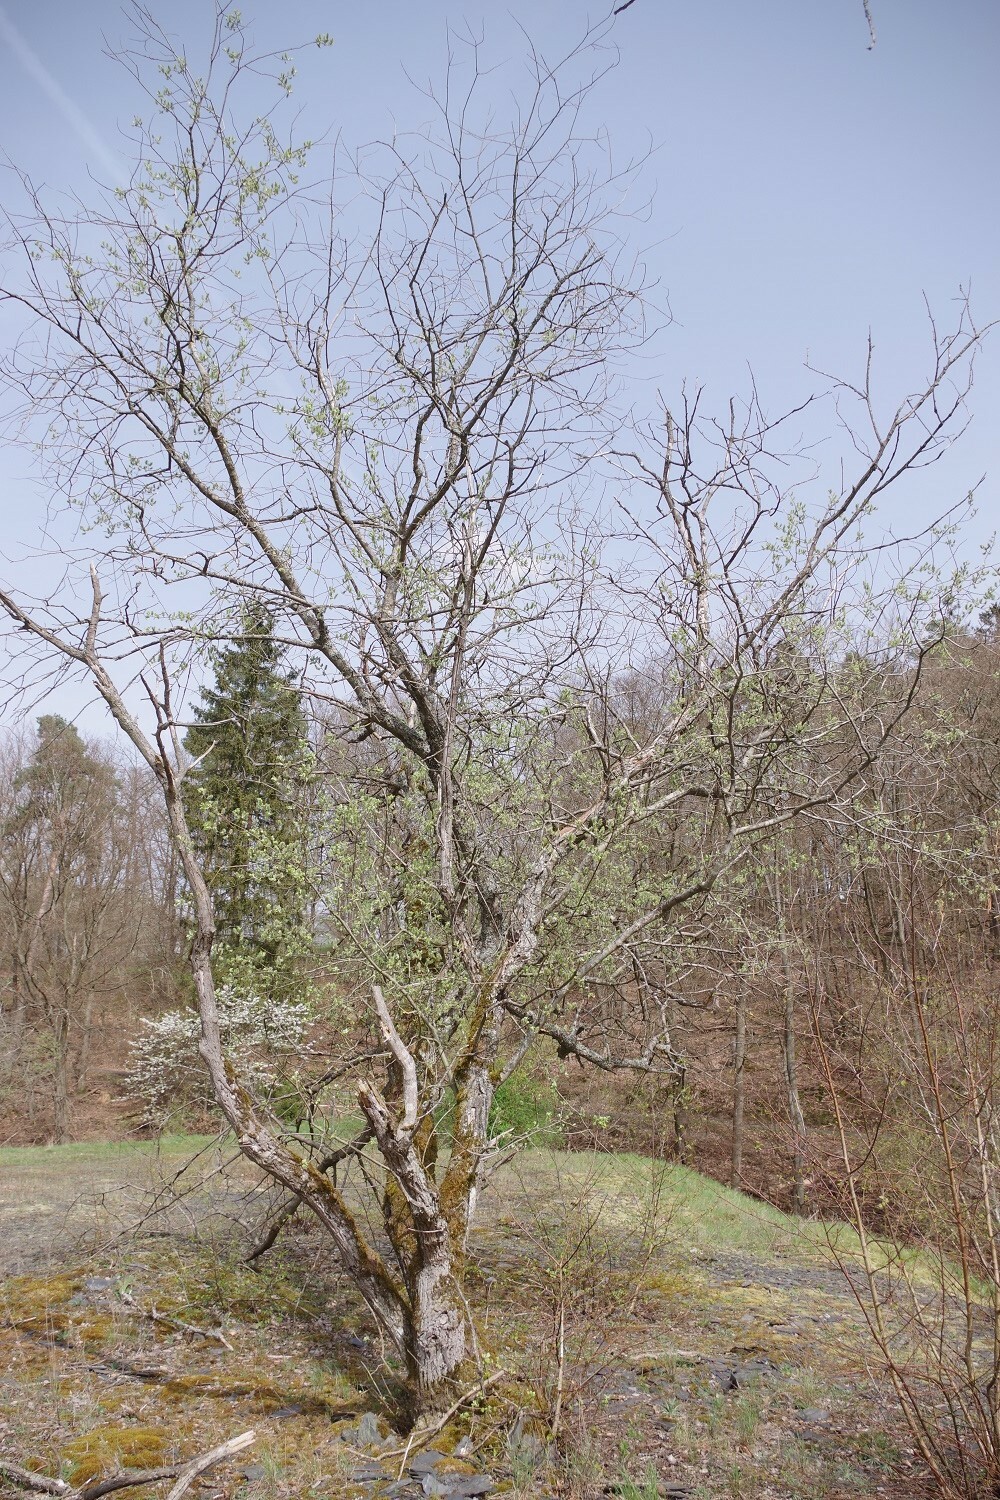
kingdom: Plantae
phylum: Tracheophyta
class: Magnoliopsida
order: Malpighiales
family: Salicaceae
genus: Salix
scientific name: Salix caprea
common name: Goat willow
